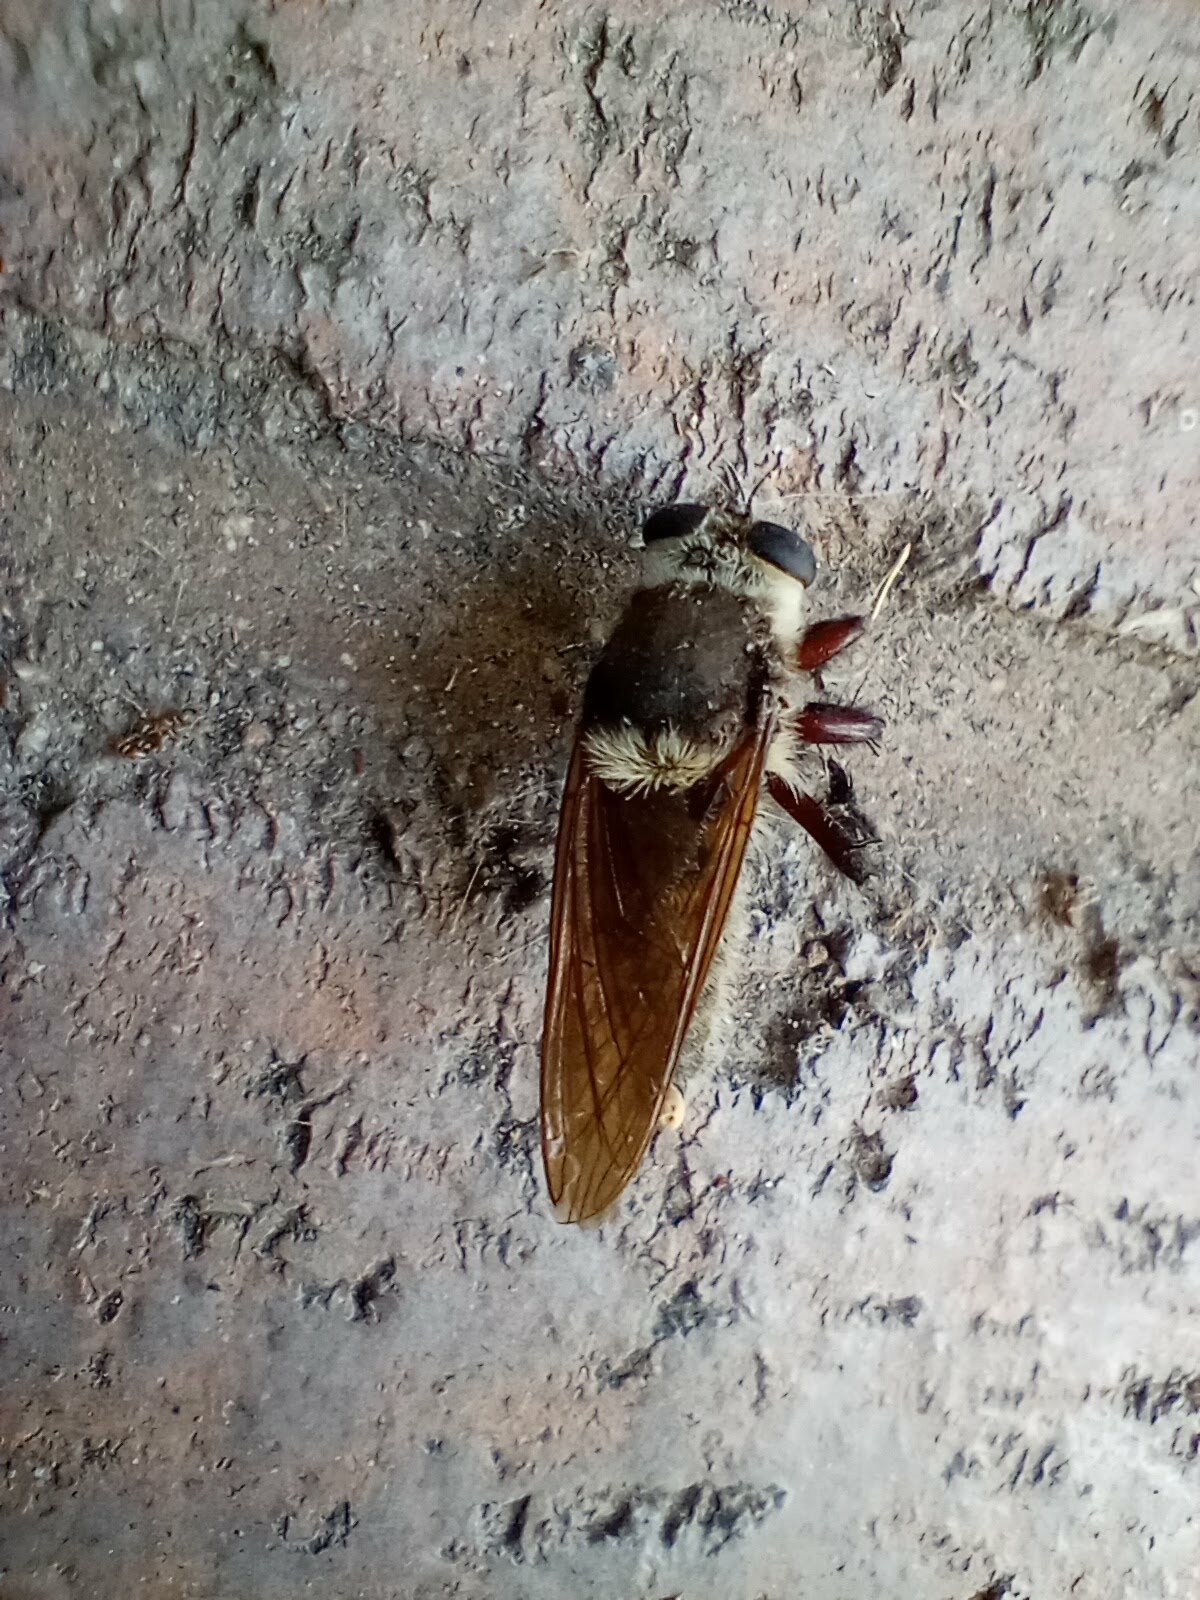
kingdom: Animalia
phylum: Arthropoda
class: Insecta
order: Diptera
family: Asilidae
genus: Mallophora
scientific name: Mallophora fautrix
